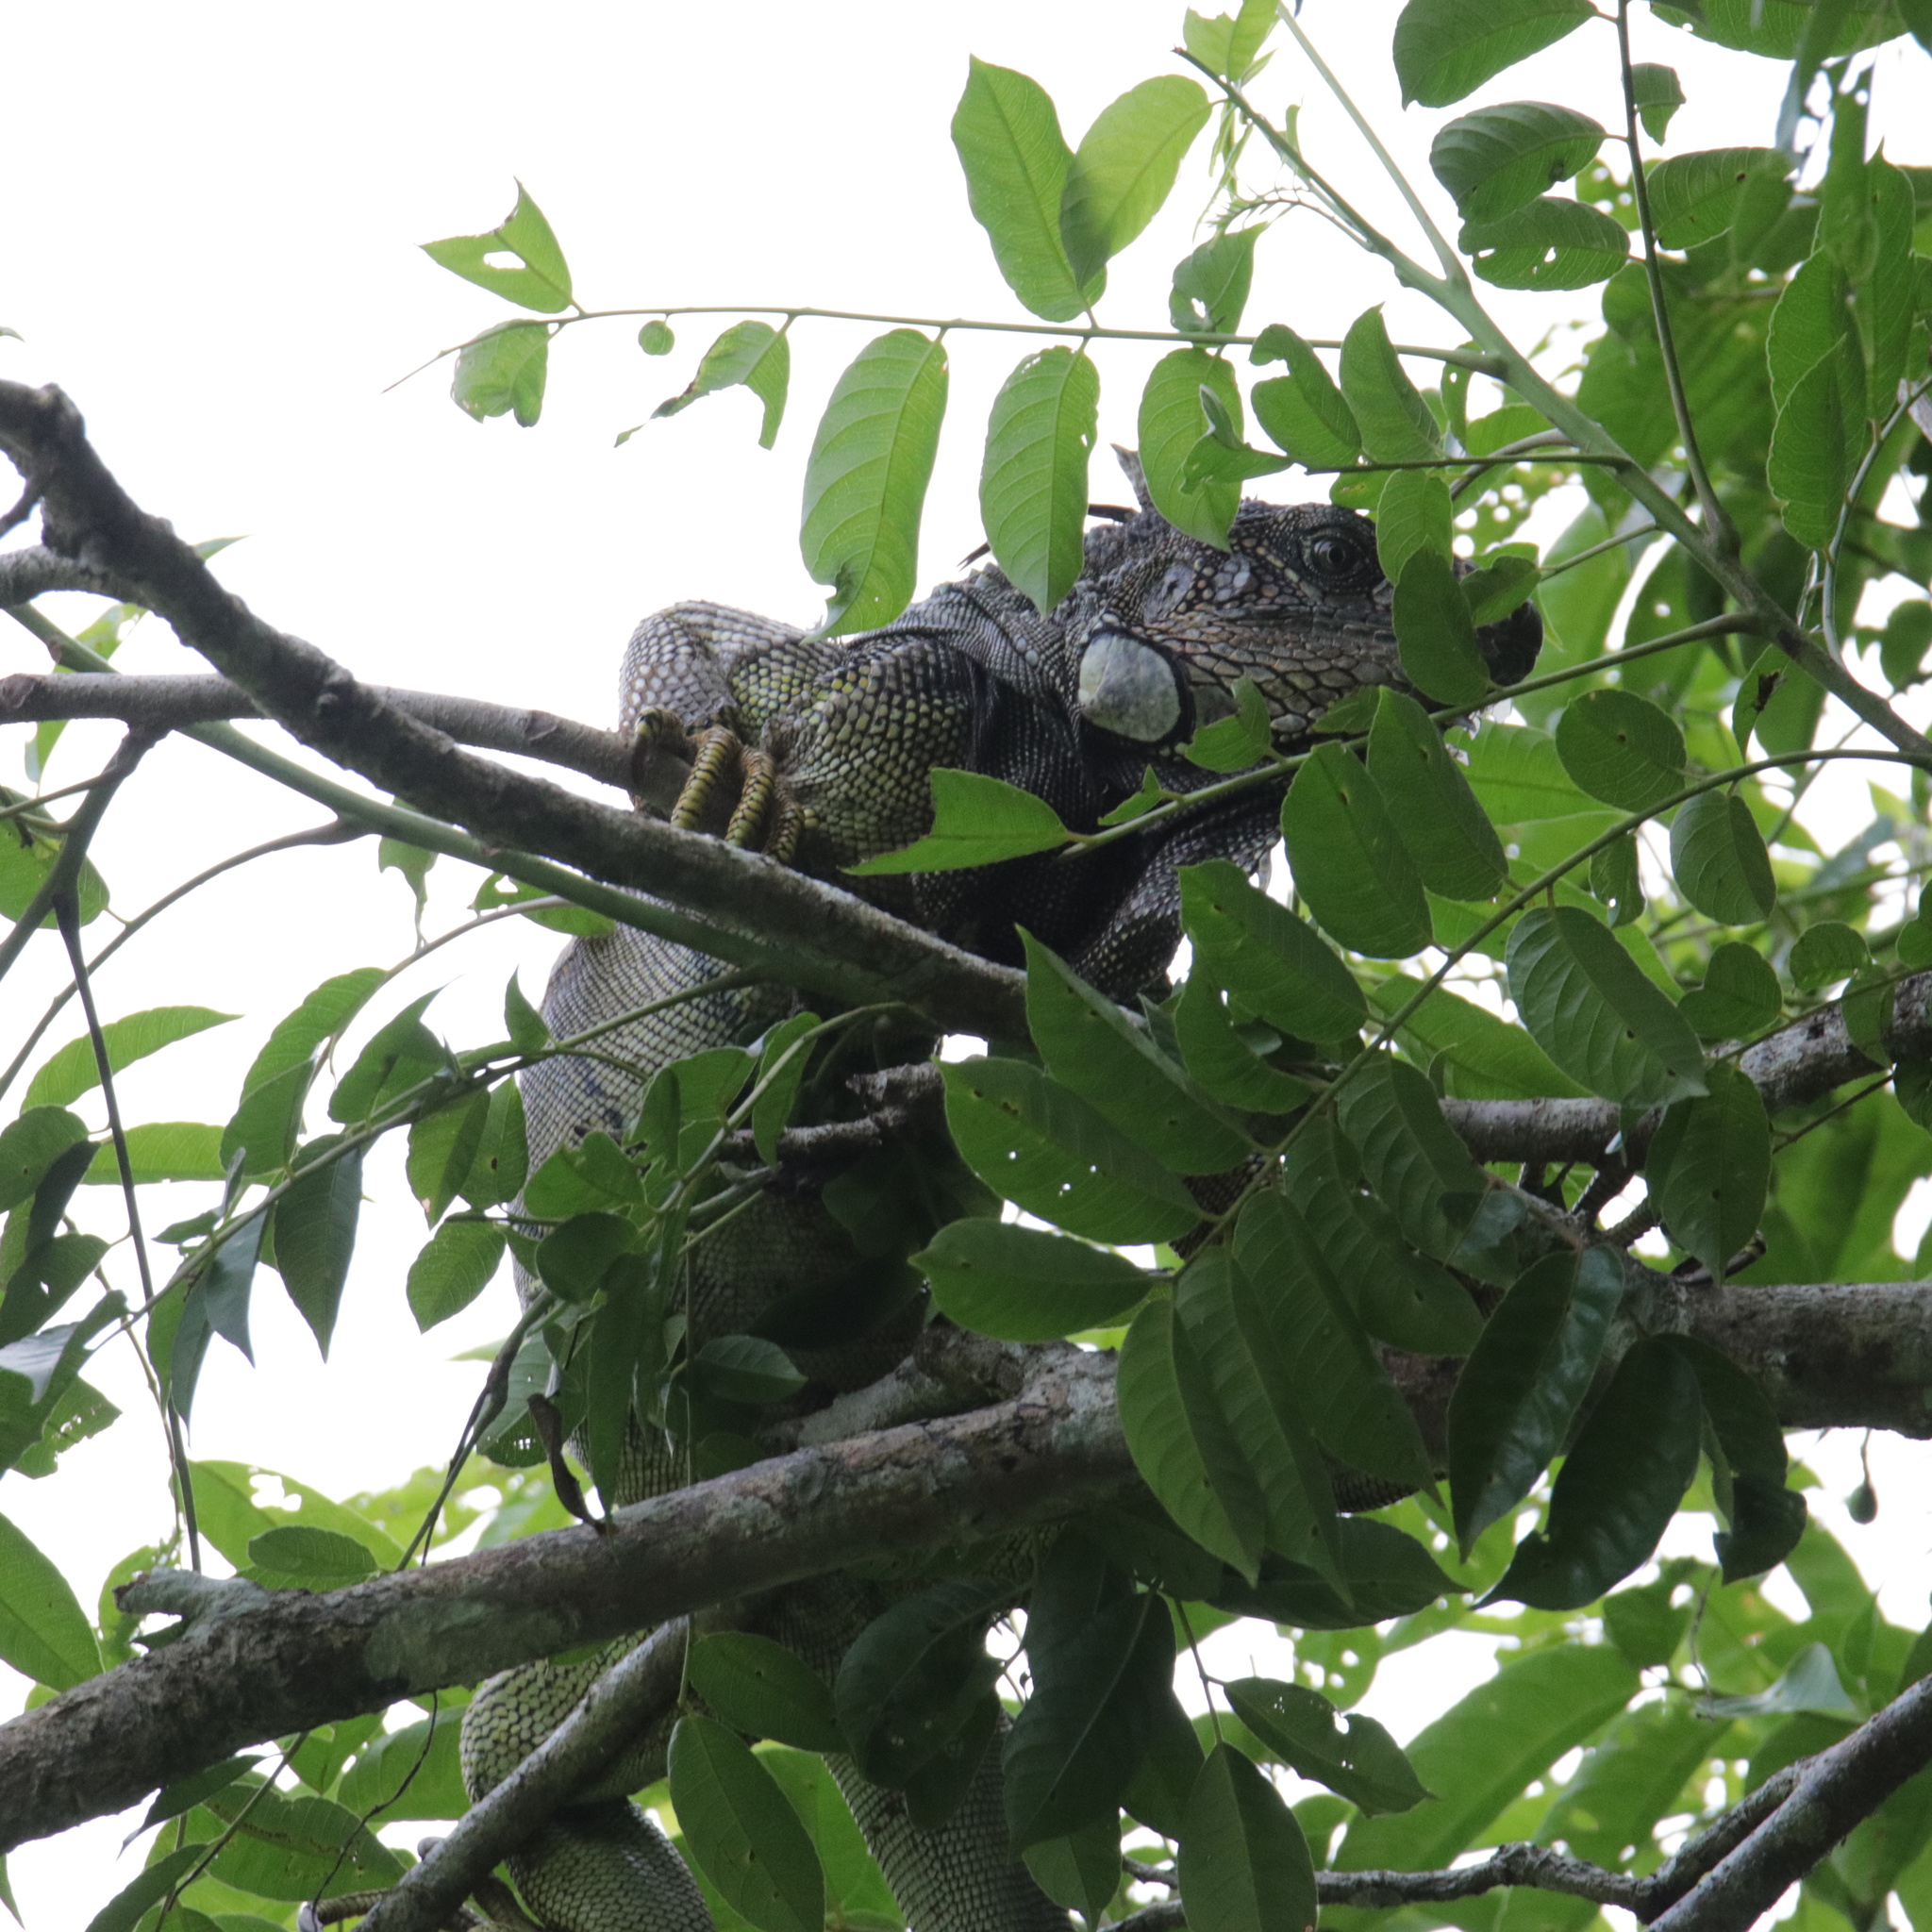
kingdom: Animalia
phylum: Chordata
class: Squamata
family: Iguanidae
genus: Iguana
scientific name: Iguana iguana
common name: Green iguana
